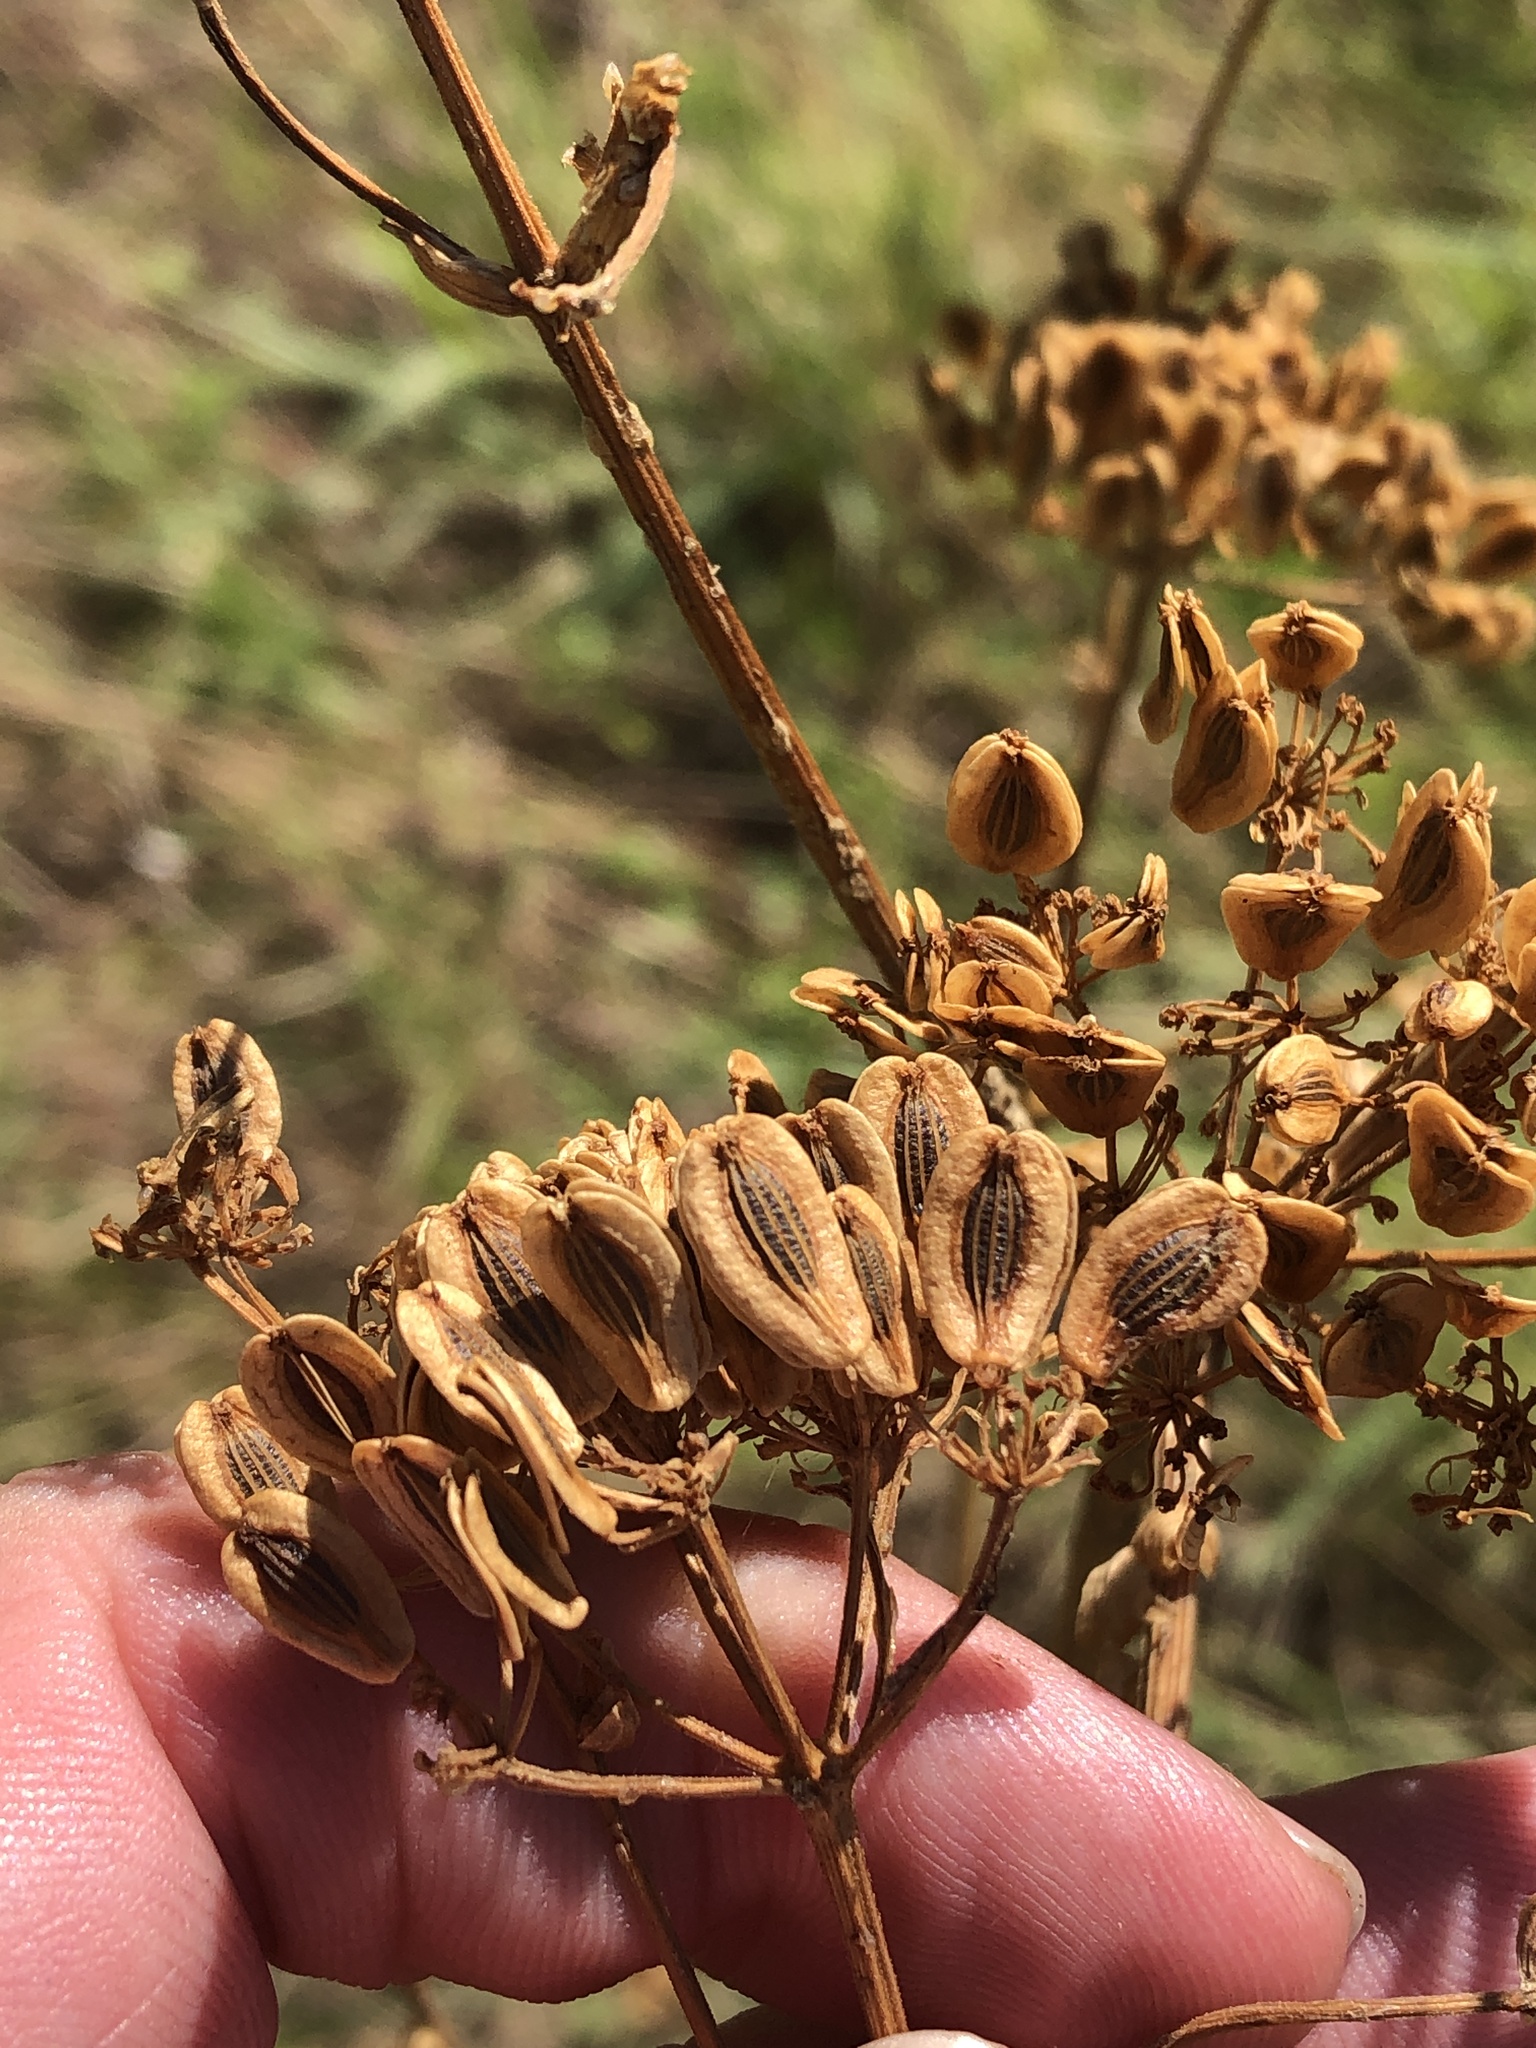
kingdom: Plantae
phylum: Tracheophyta
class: Magnoliopsida
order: Apiales
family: Apiaceae
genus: Polytaenia
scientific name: Polytaenia texana
